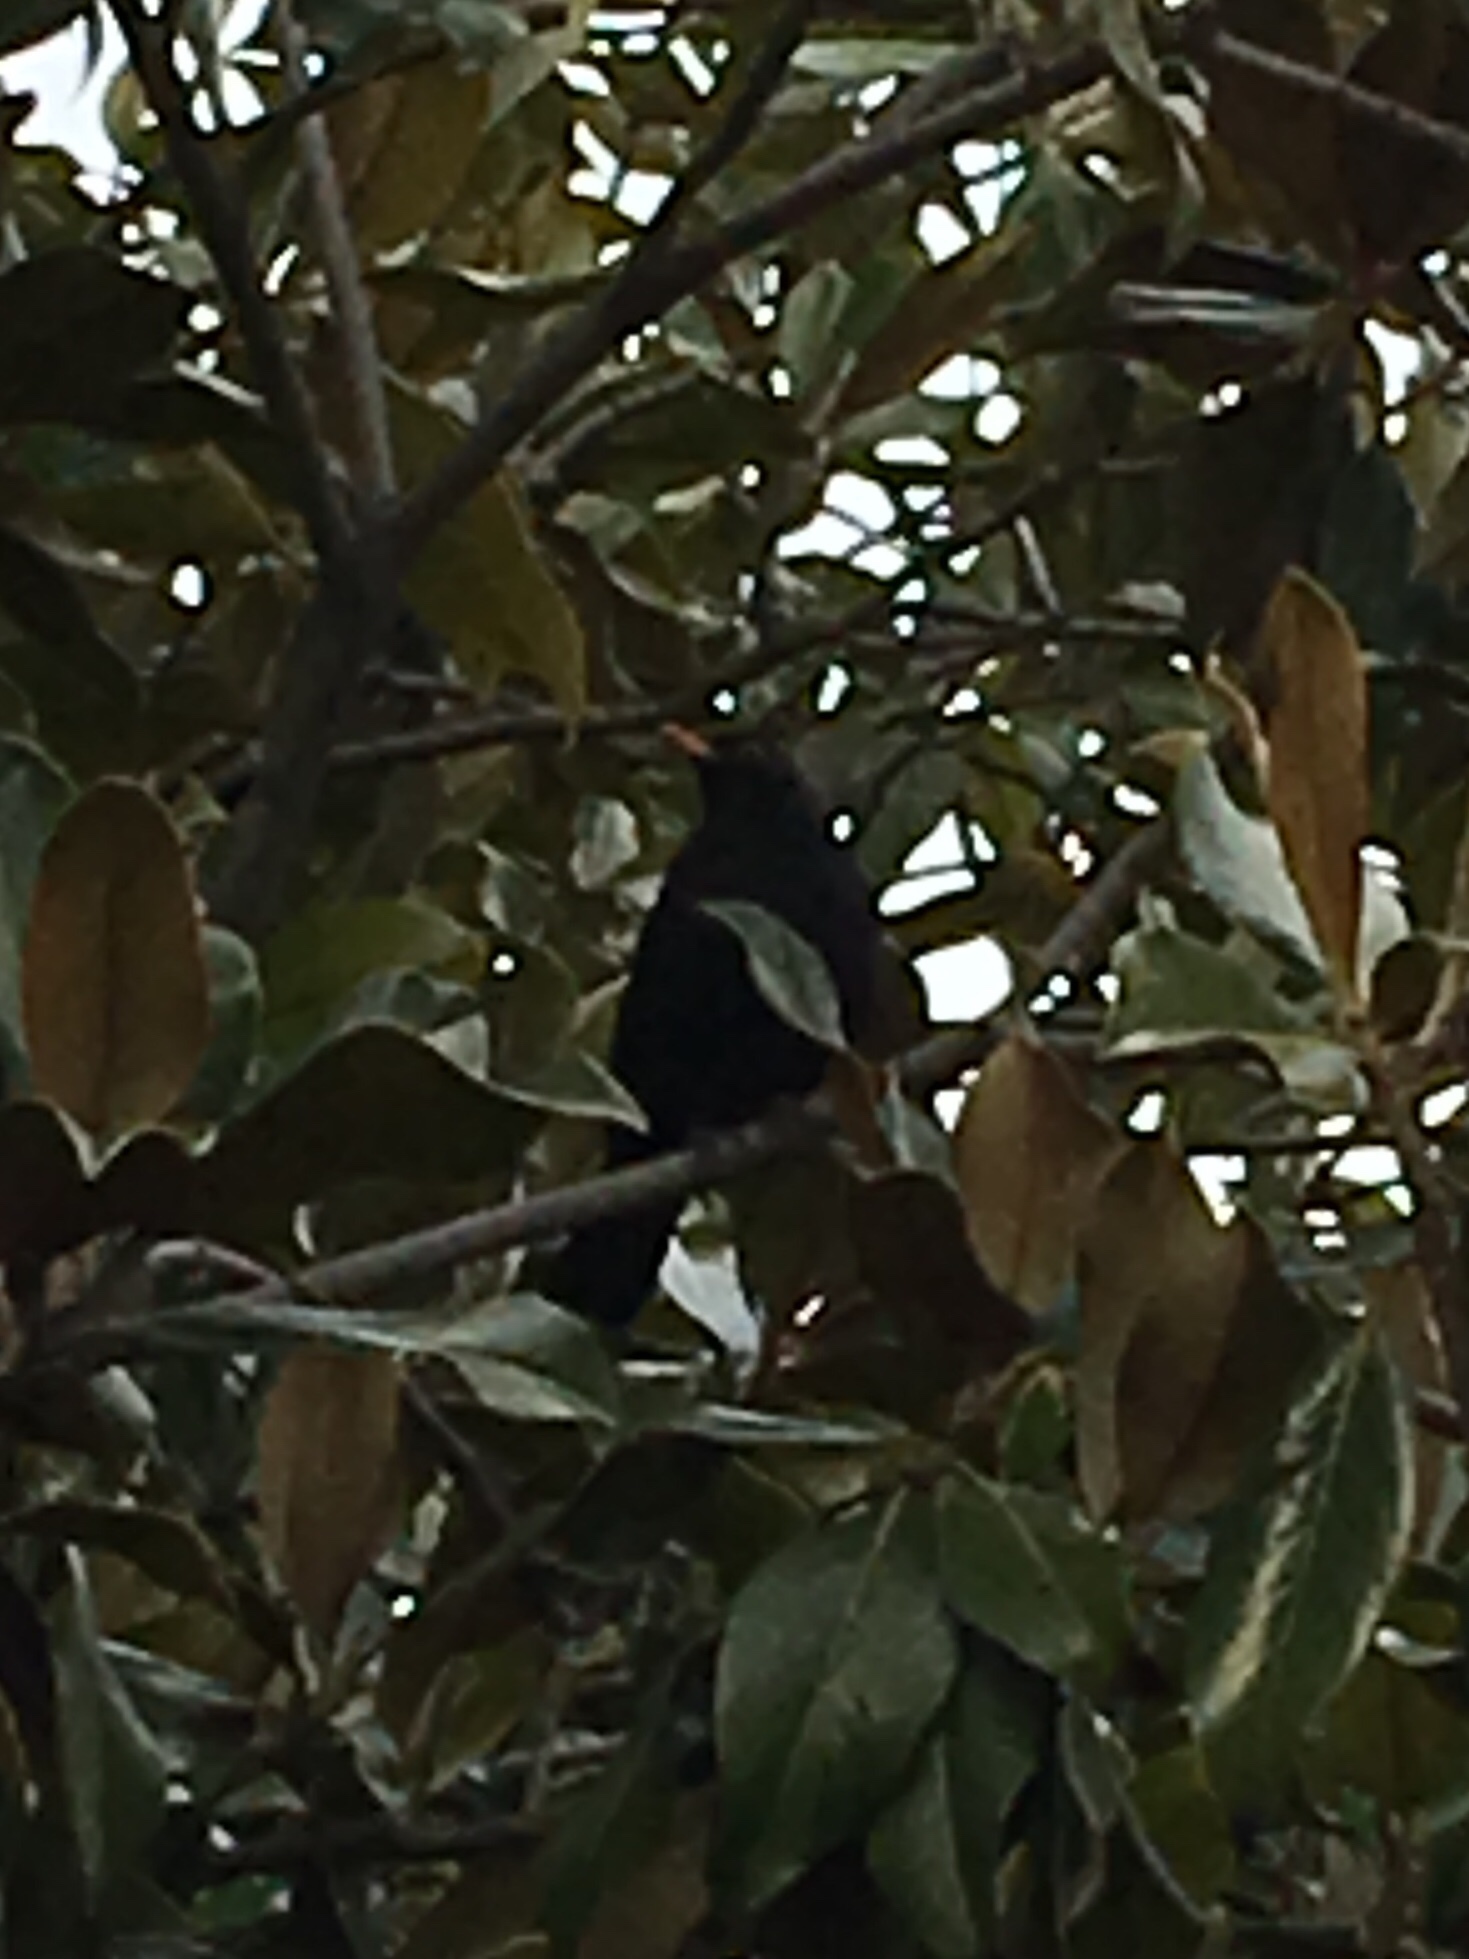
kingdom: Animalia
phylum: Chordata
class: Aves
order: Passeriformes
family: Turdidae
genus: Turdus
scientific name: Turdus merula
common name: Common blackbird
